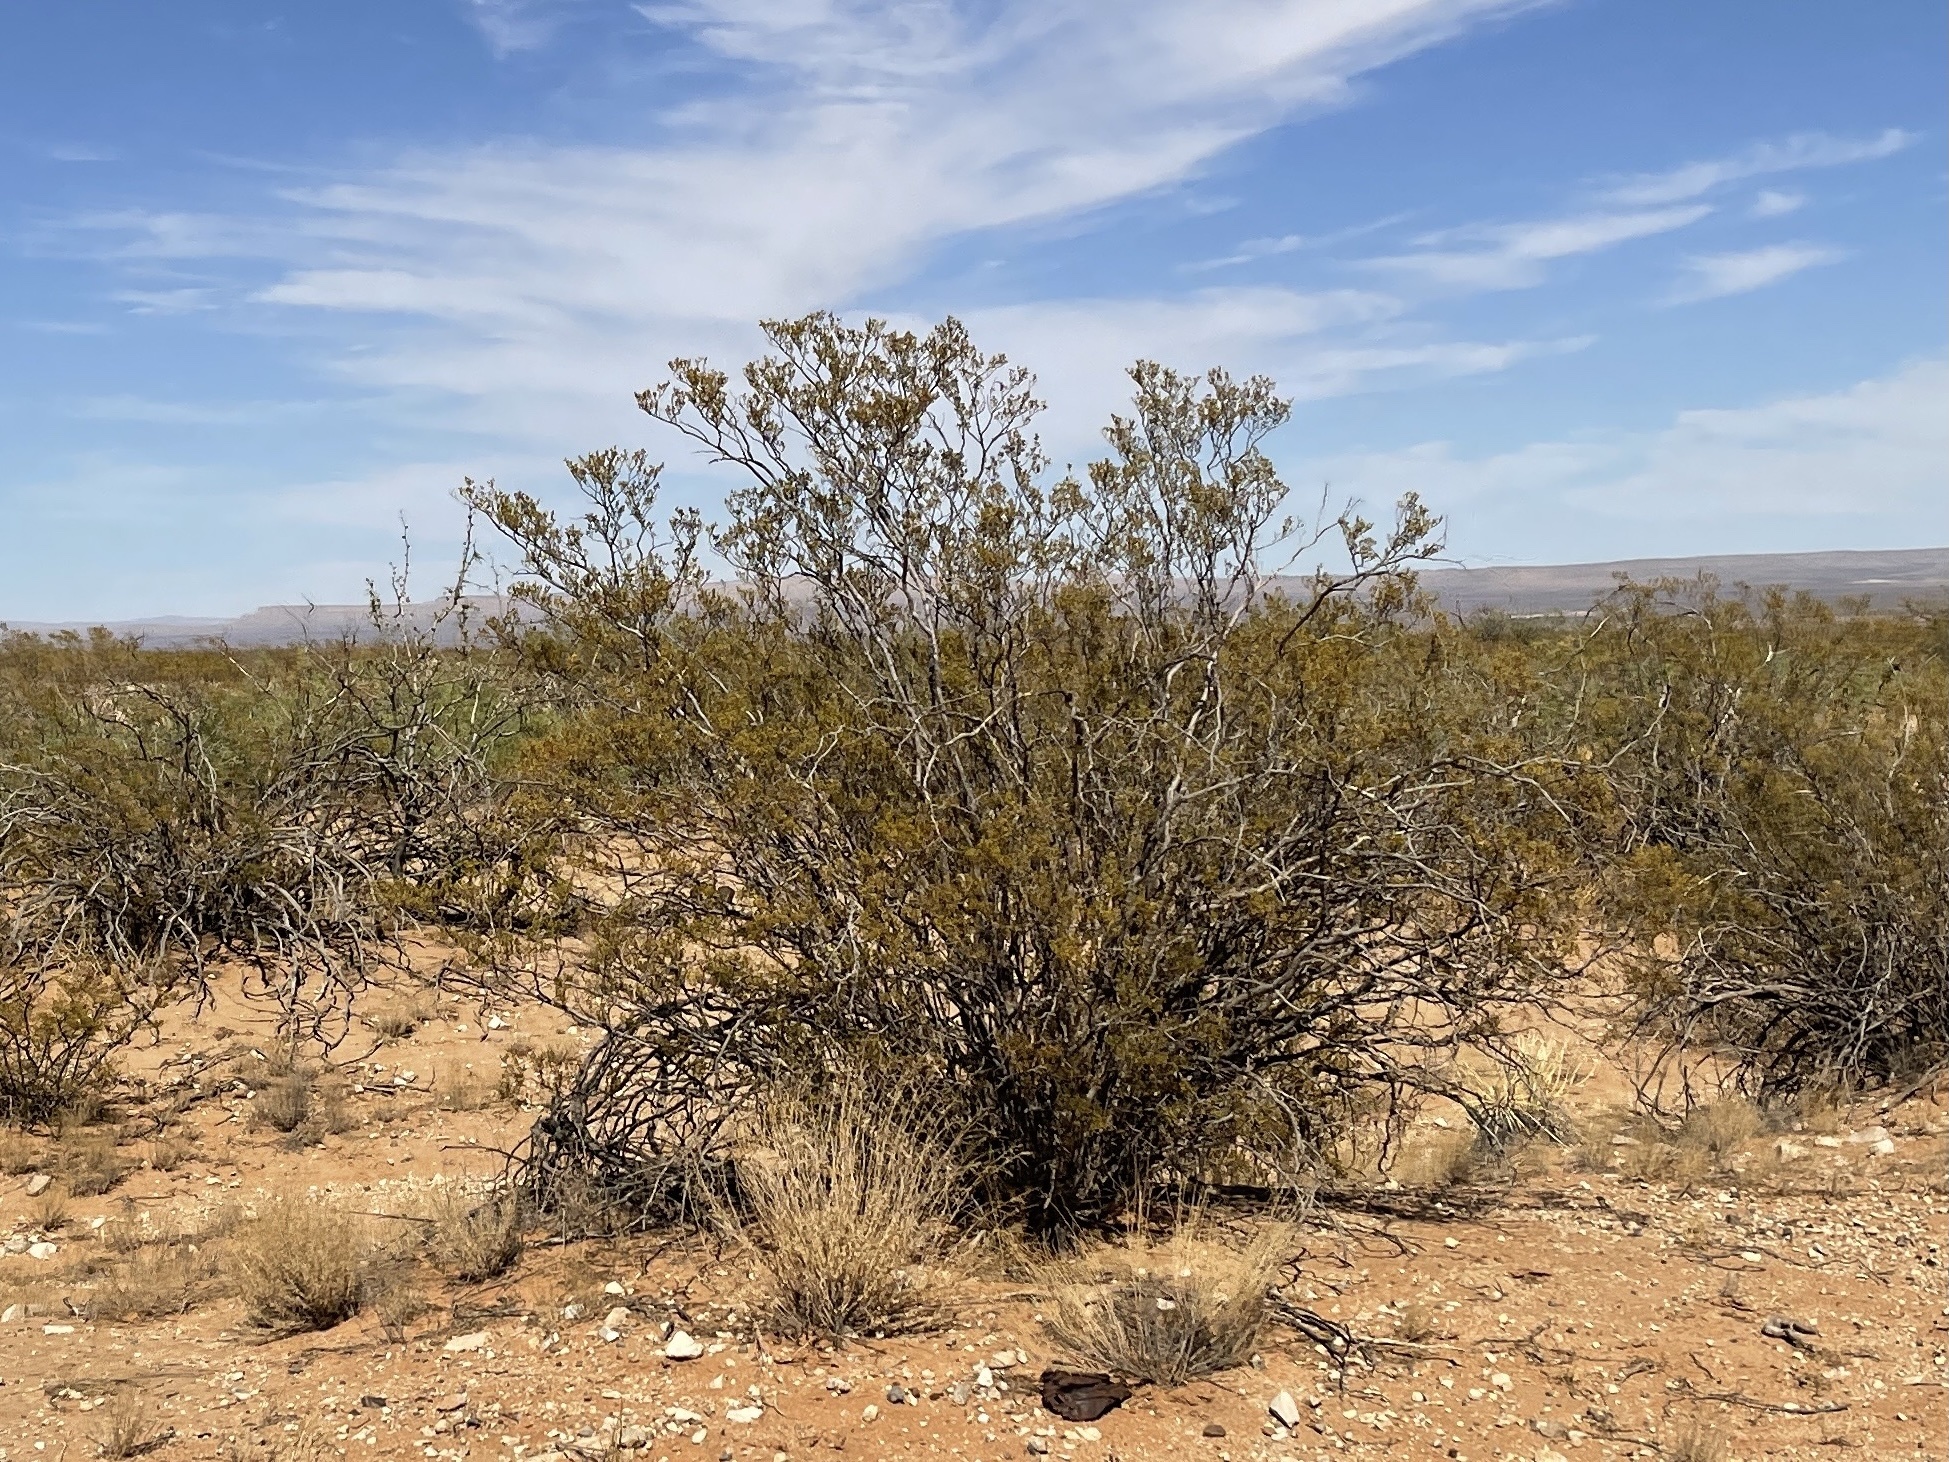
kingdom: Plantae
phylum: Tracheophyta
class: Magnoliopsida
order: Zygophyllales
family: Zygophyllaceae
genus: Larrea
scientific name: Larrea tridentata
